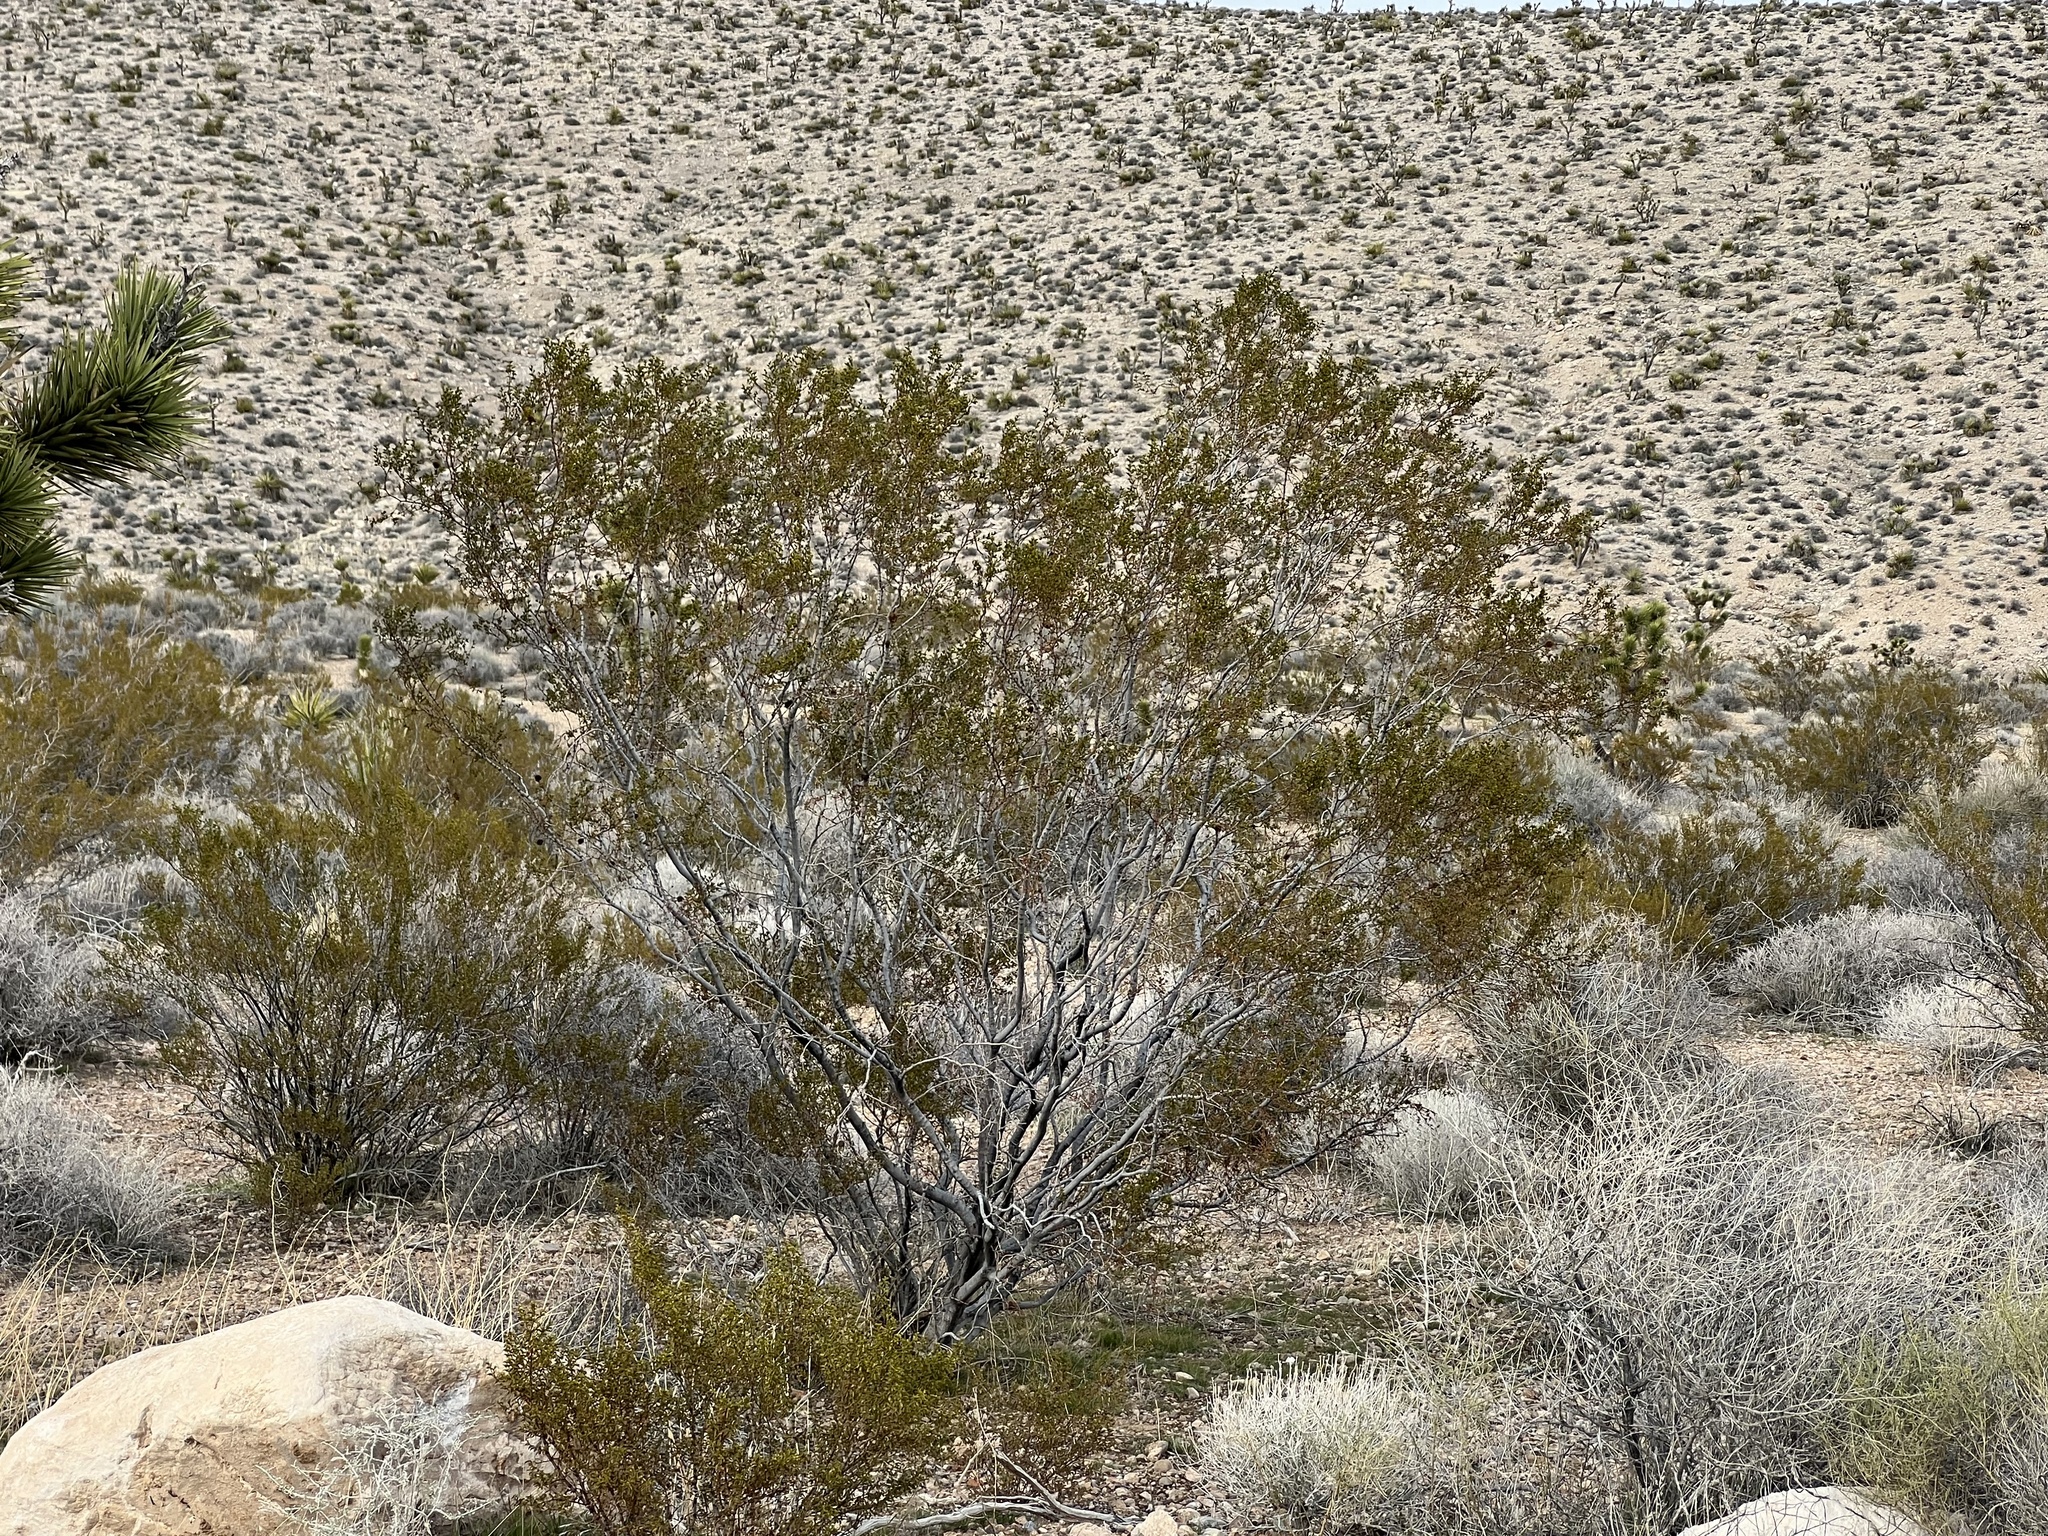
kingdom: Plantae
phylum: Tracheophyta
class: Magnoliopsida
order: Zygophyllales
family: Zygophyllaceae
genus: Larrea
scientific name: Larrea tridentata
